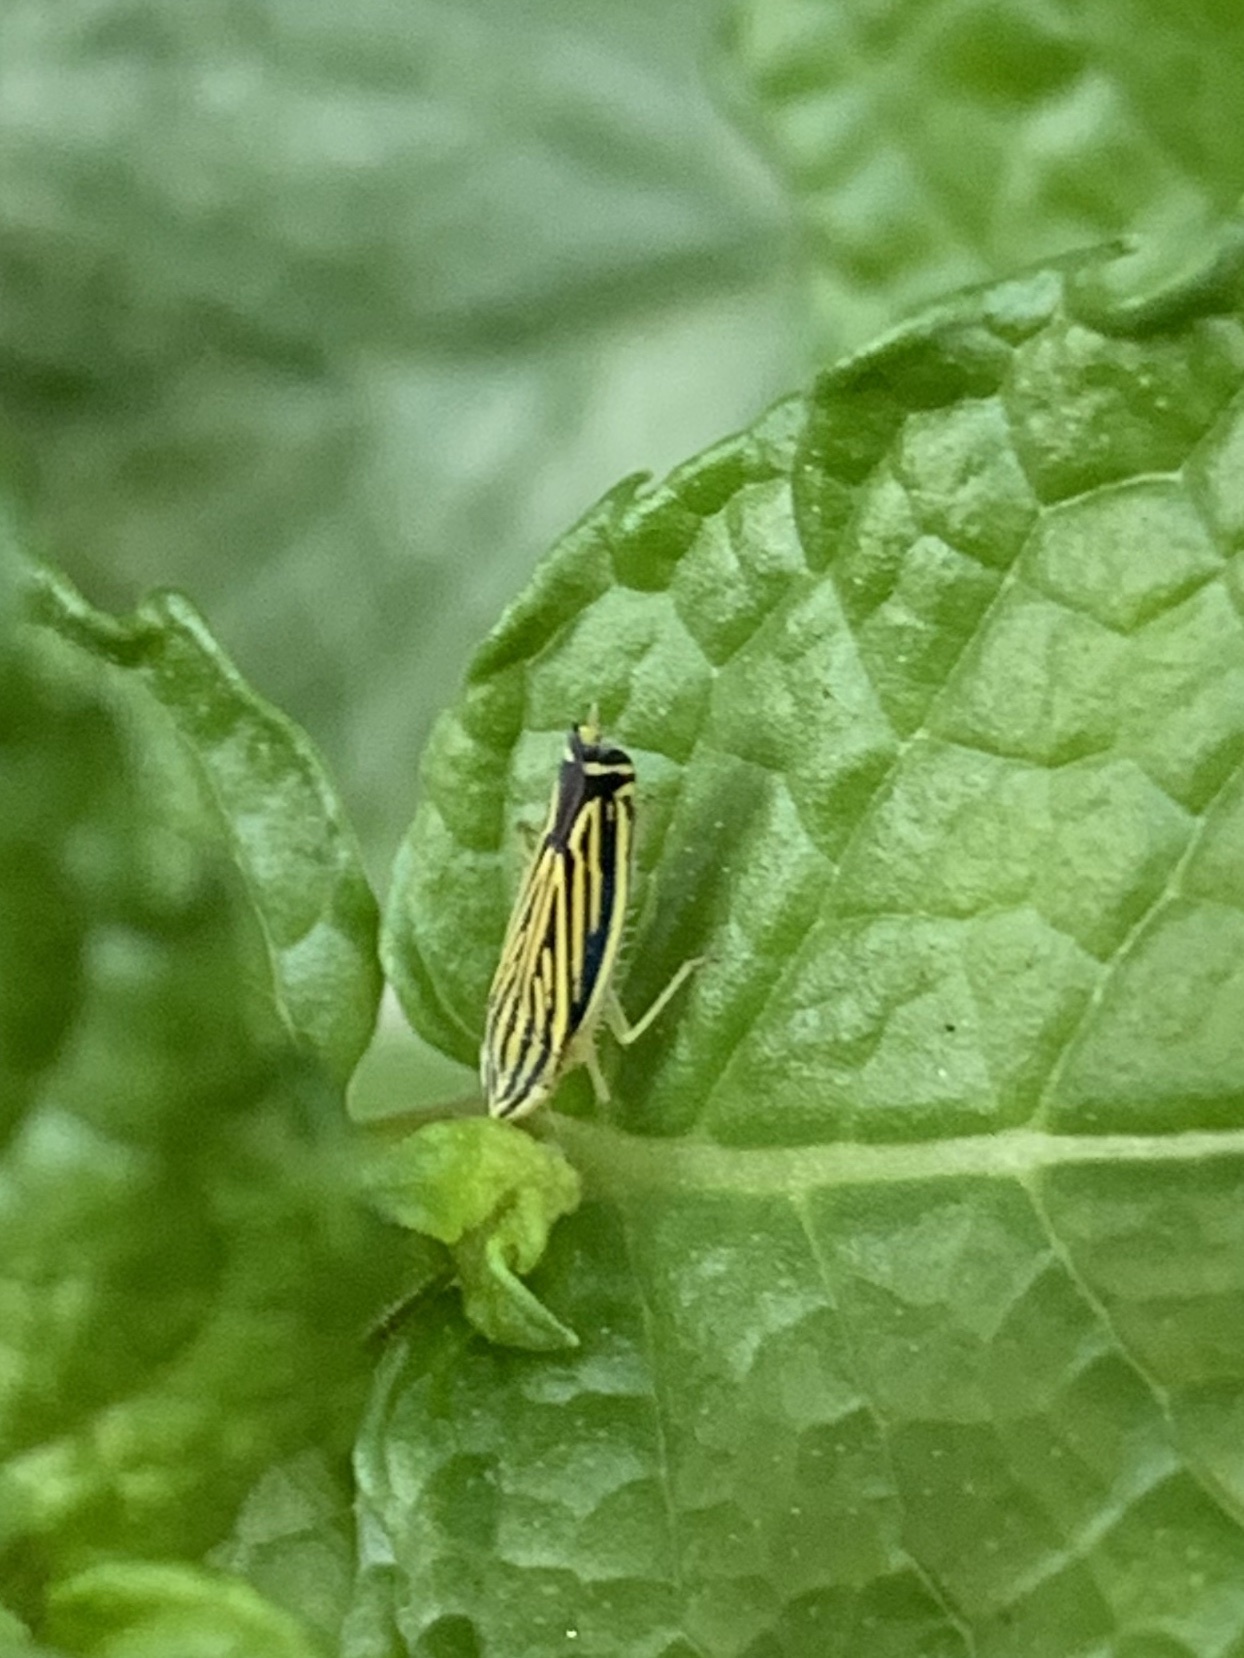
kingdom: Animalia
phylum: Arthropoda
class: Insecta
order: Hemiptera
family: Cicadellidae
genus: Sibovia
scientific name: Sibovia occatoria
